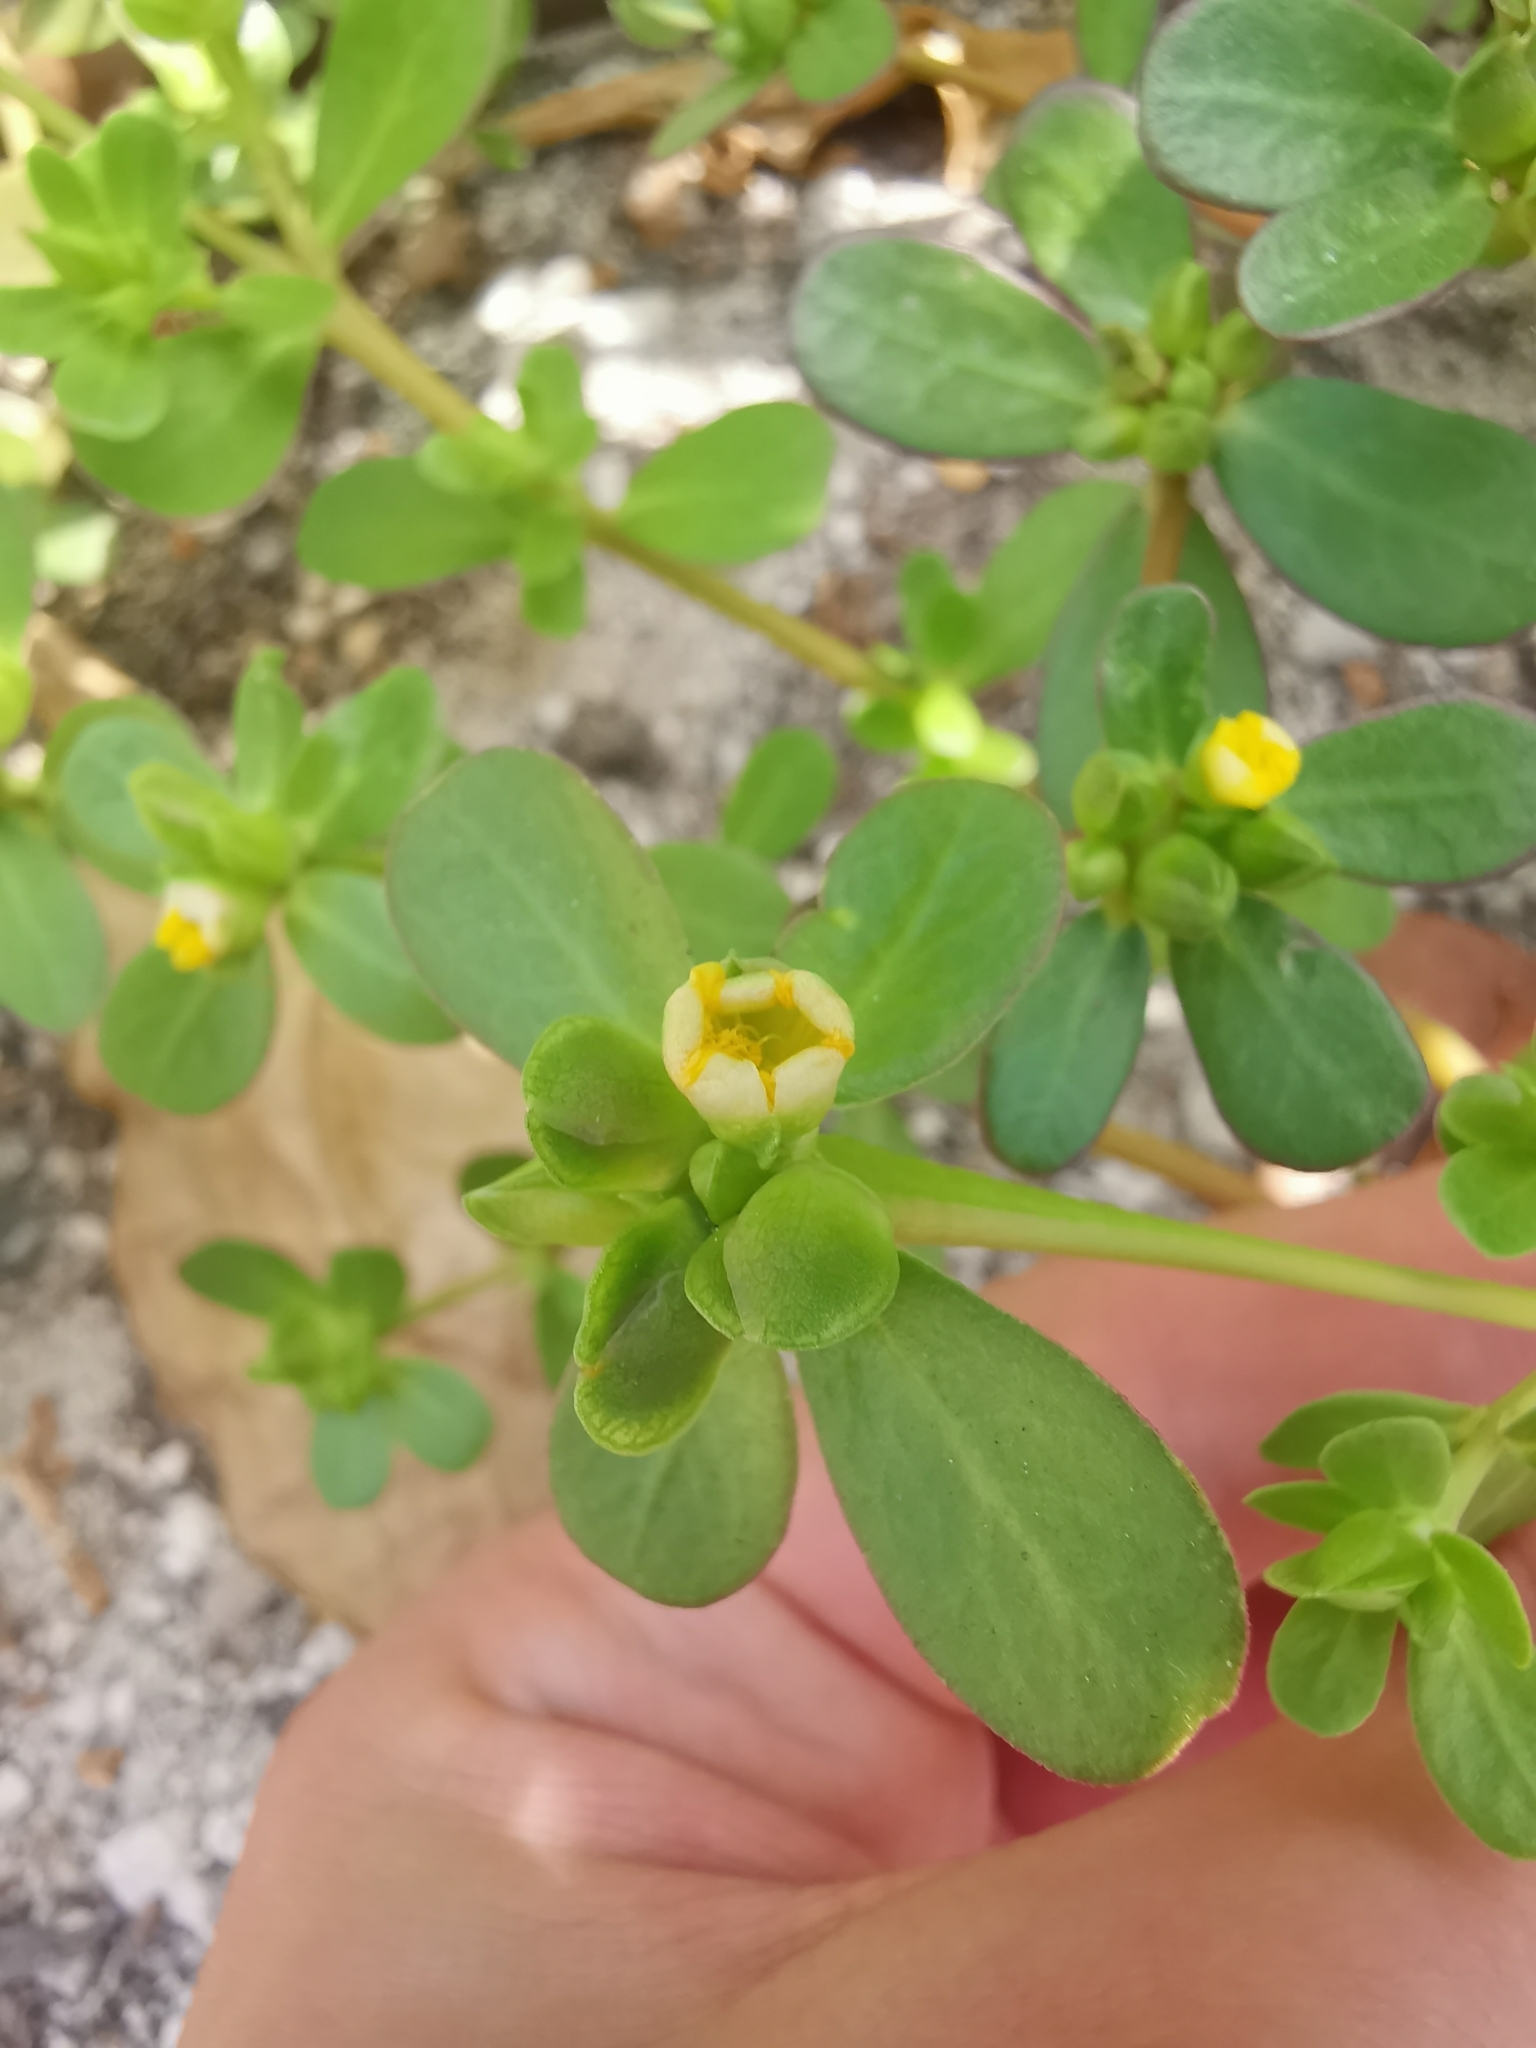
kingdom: Plantae
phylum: Tracheophyta
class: Magnoliopsida
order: Caryophyllales
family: Portulacaceae
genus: Portulaca
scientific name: Portulaca oleracea
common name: Common purslane
